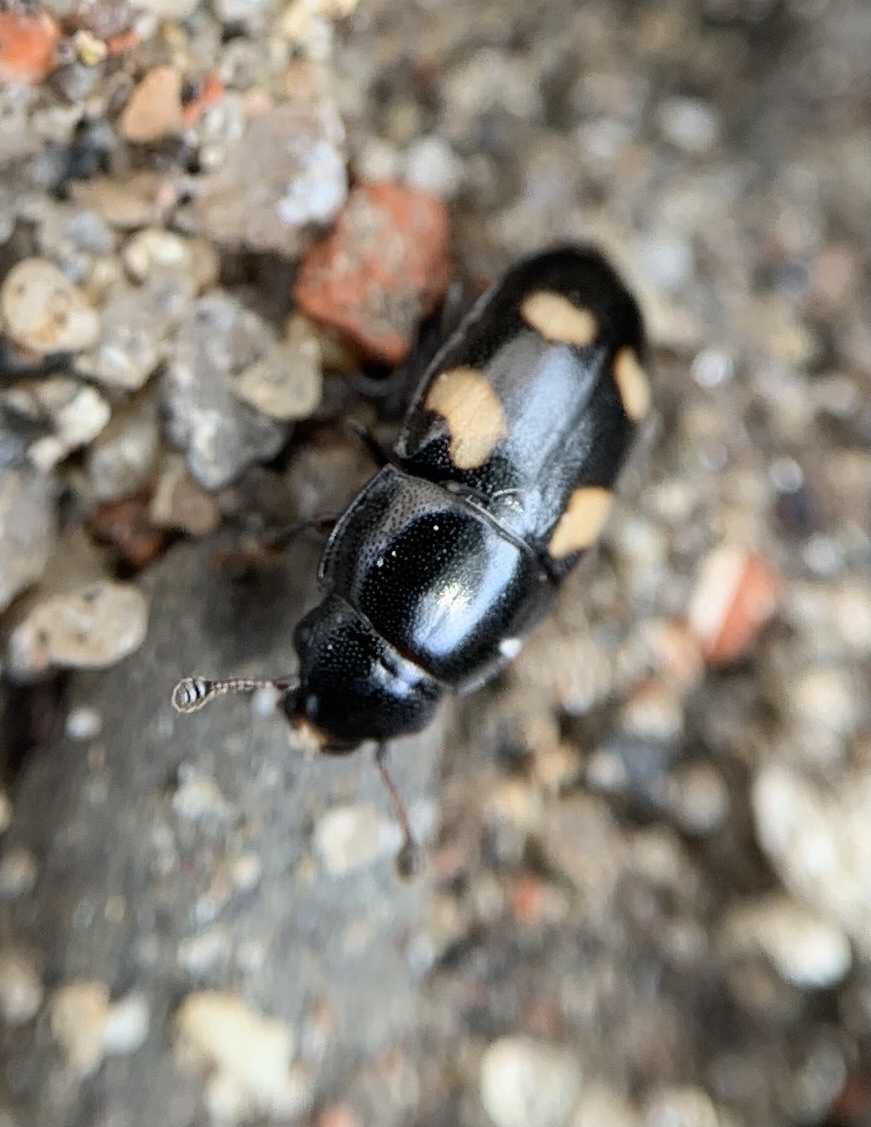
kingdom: Animalia
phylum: Arthropoda
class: Insecta
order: Coleoptera
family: Nitidulidae
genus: Glischrochilus
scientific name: Glischrochilus quadrisignatus
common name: Picnic beetle
